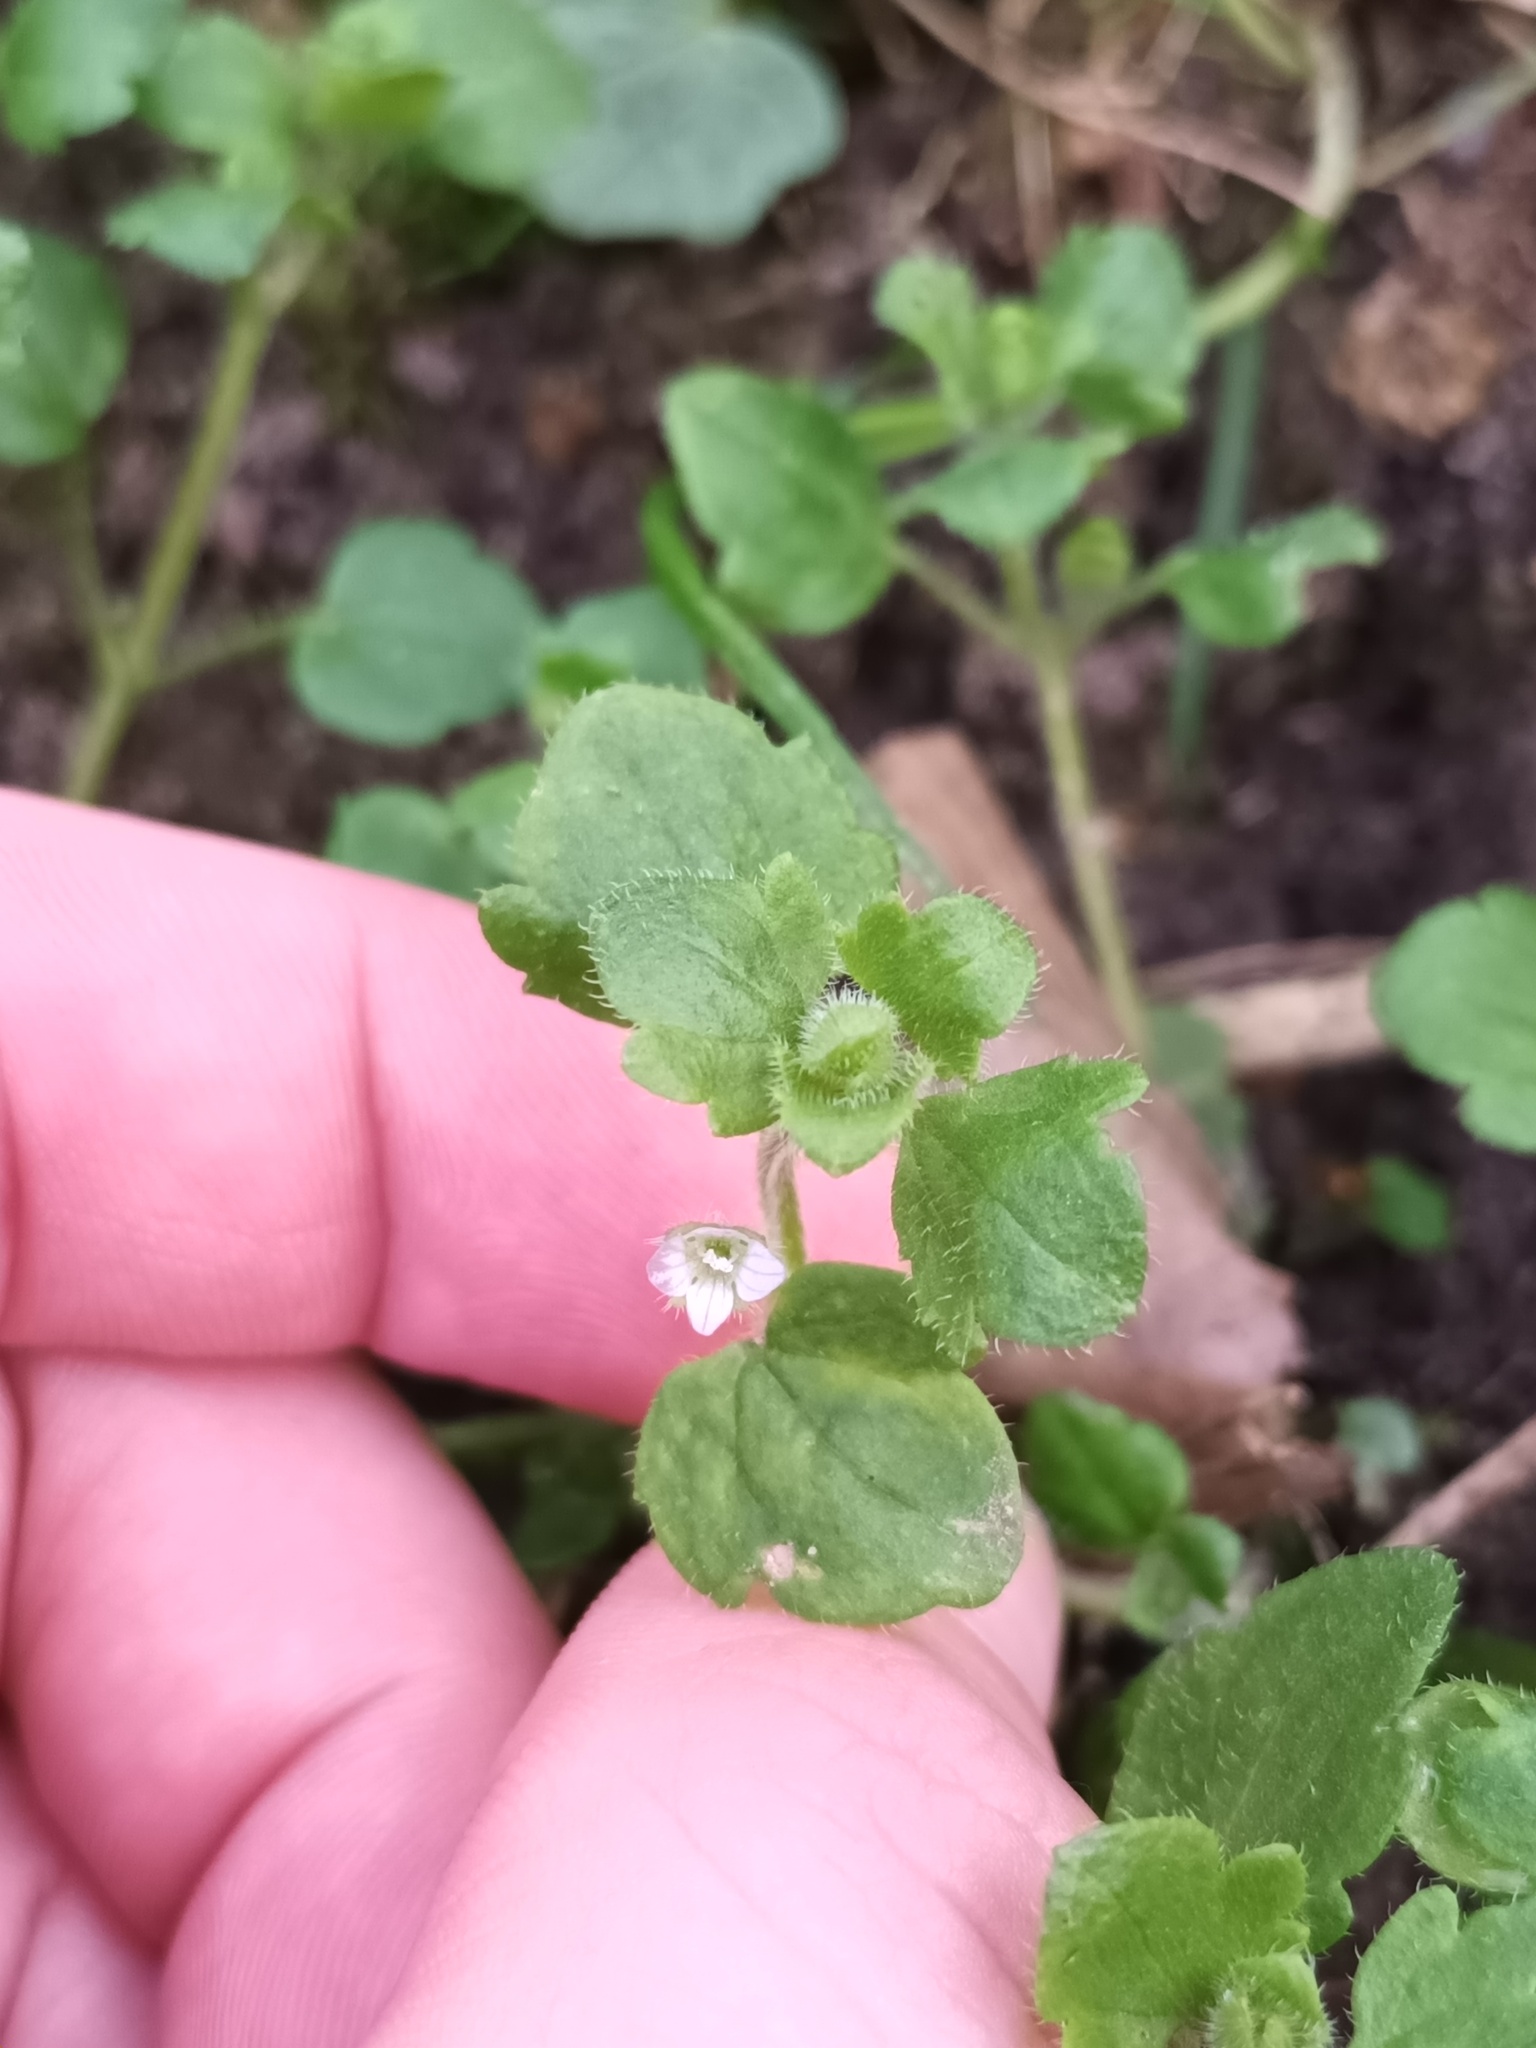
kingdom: Plantae
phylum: Tracheophyta
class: Magnoliopsida
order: Lamiales
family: Plantaginaceae
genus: Veronica
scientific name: Veronica sublobata
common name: False ivy-leaved speedwell
